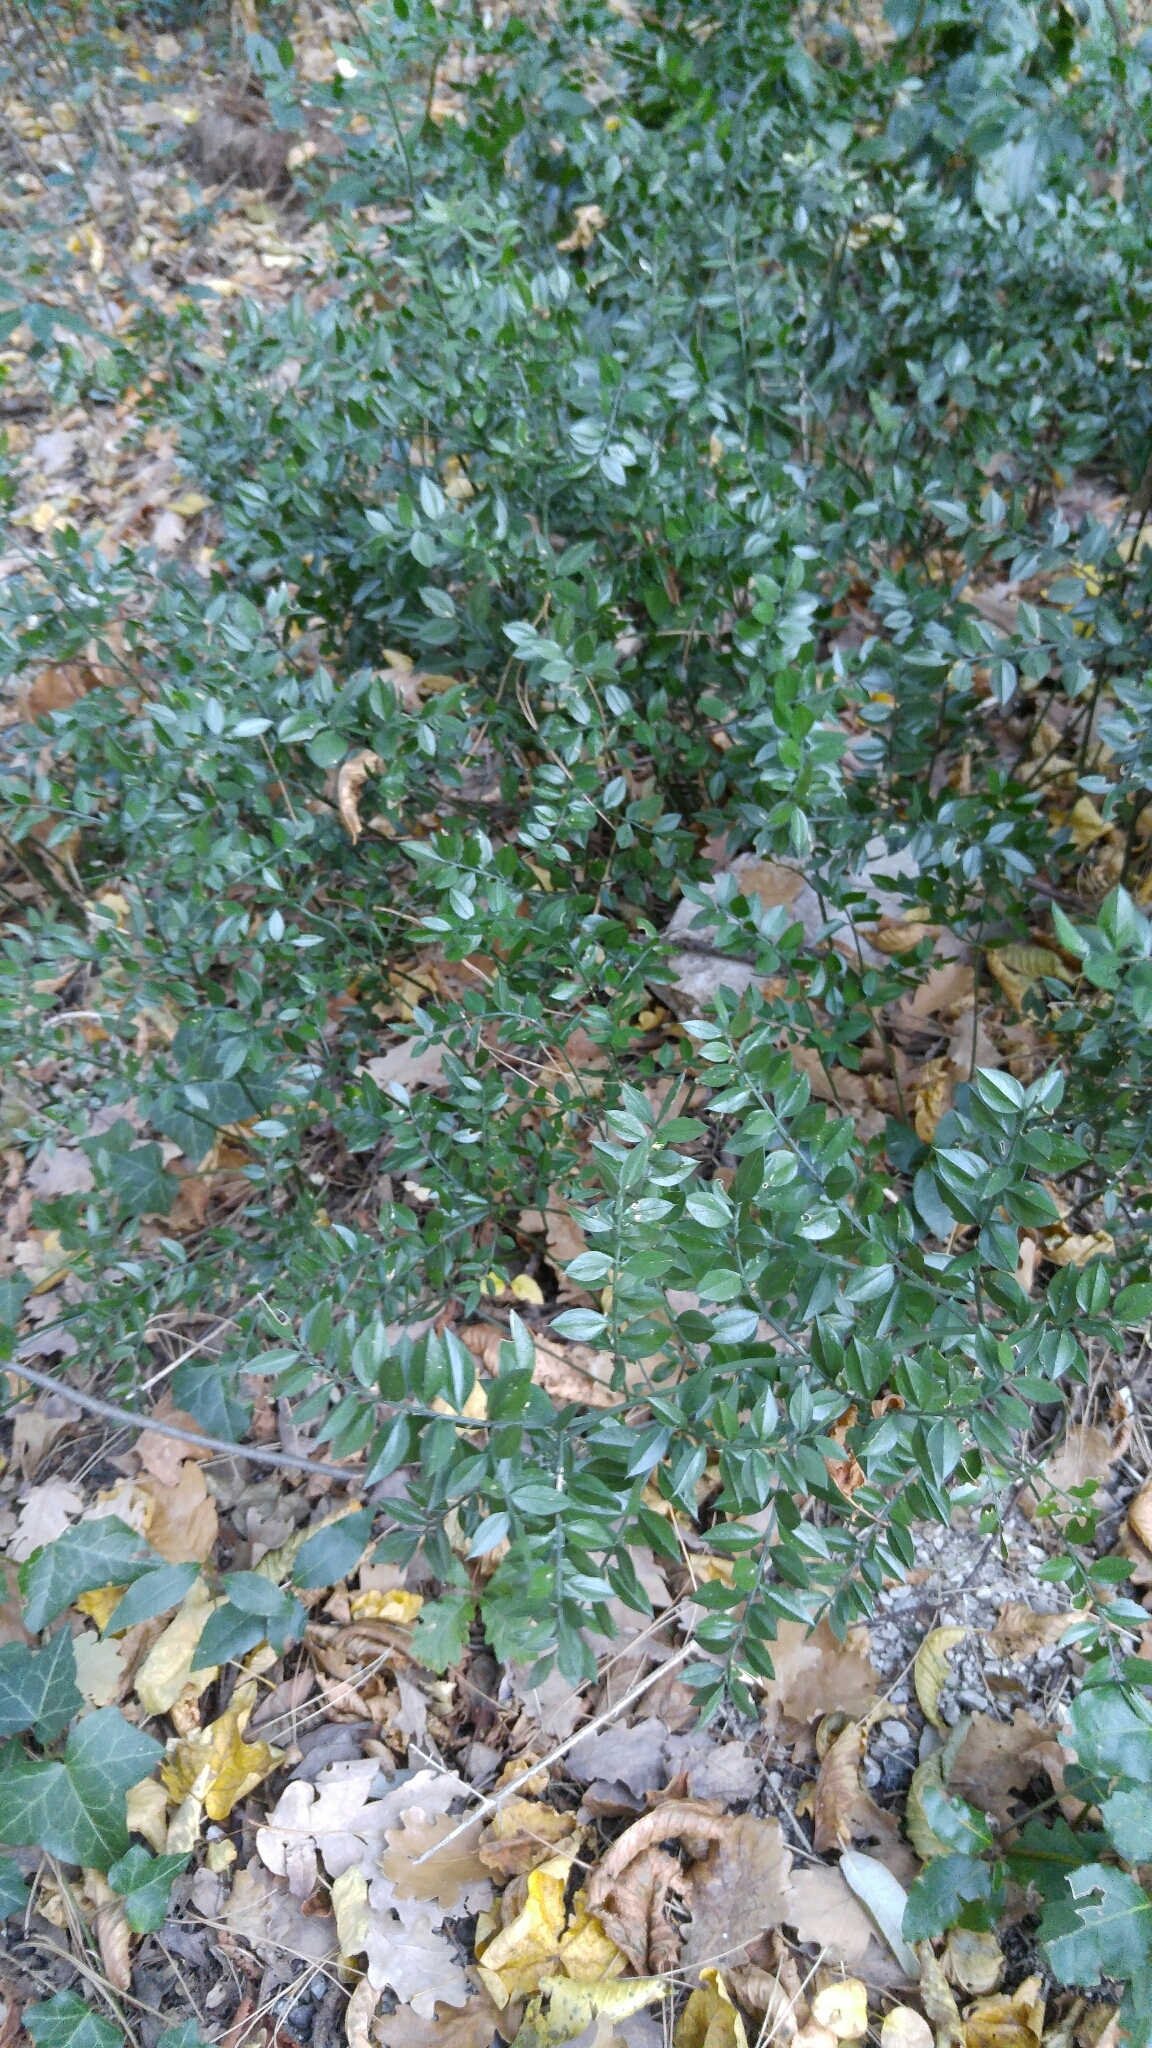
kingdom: Plantae
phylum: Tracheophyta
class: Liliopsida
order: Asparagales
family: Asparagaceae
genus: Ruscus
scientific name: Ruscus aculeatus
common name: Butcher's-broom
